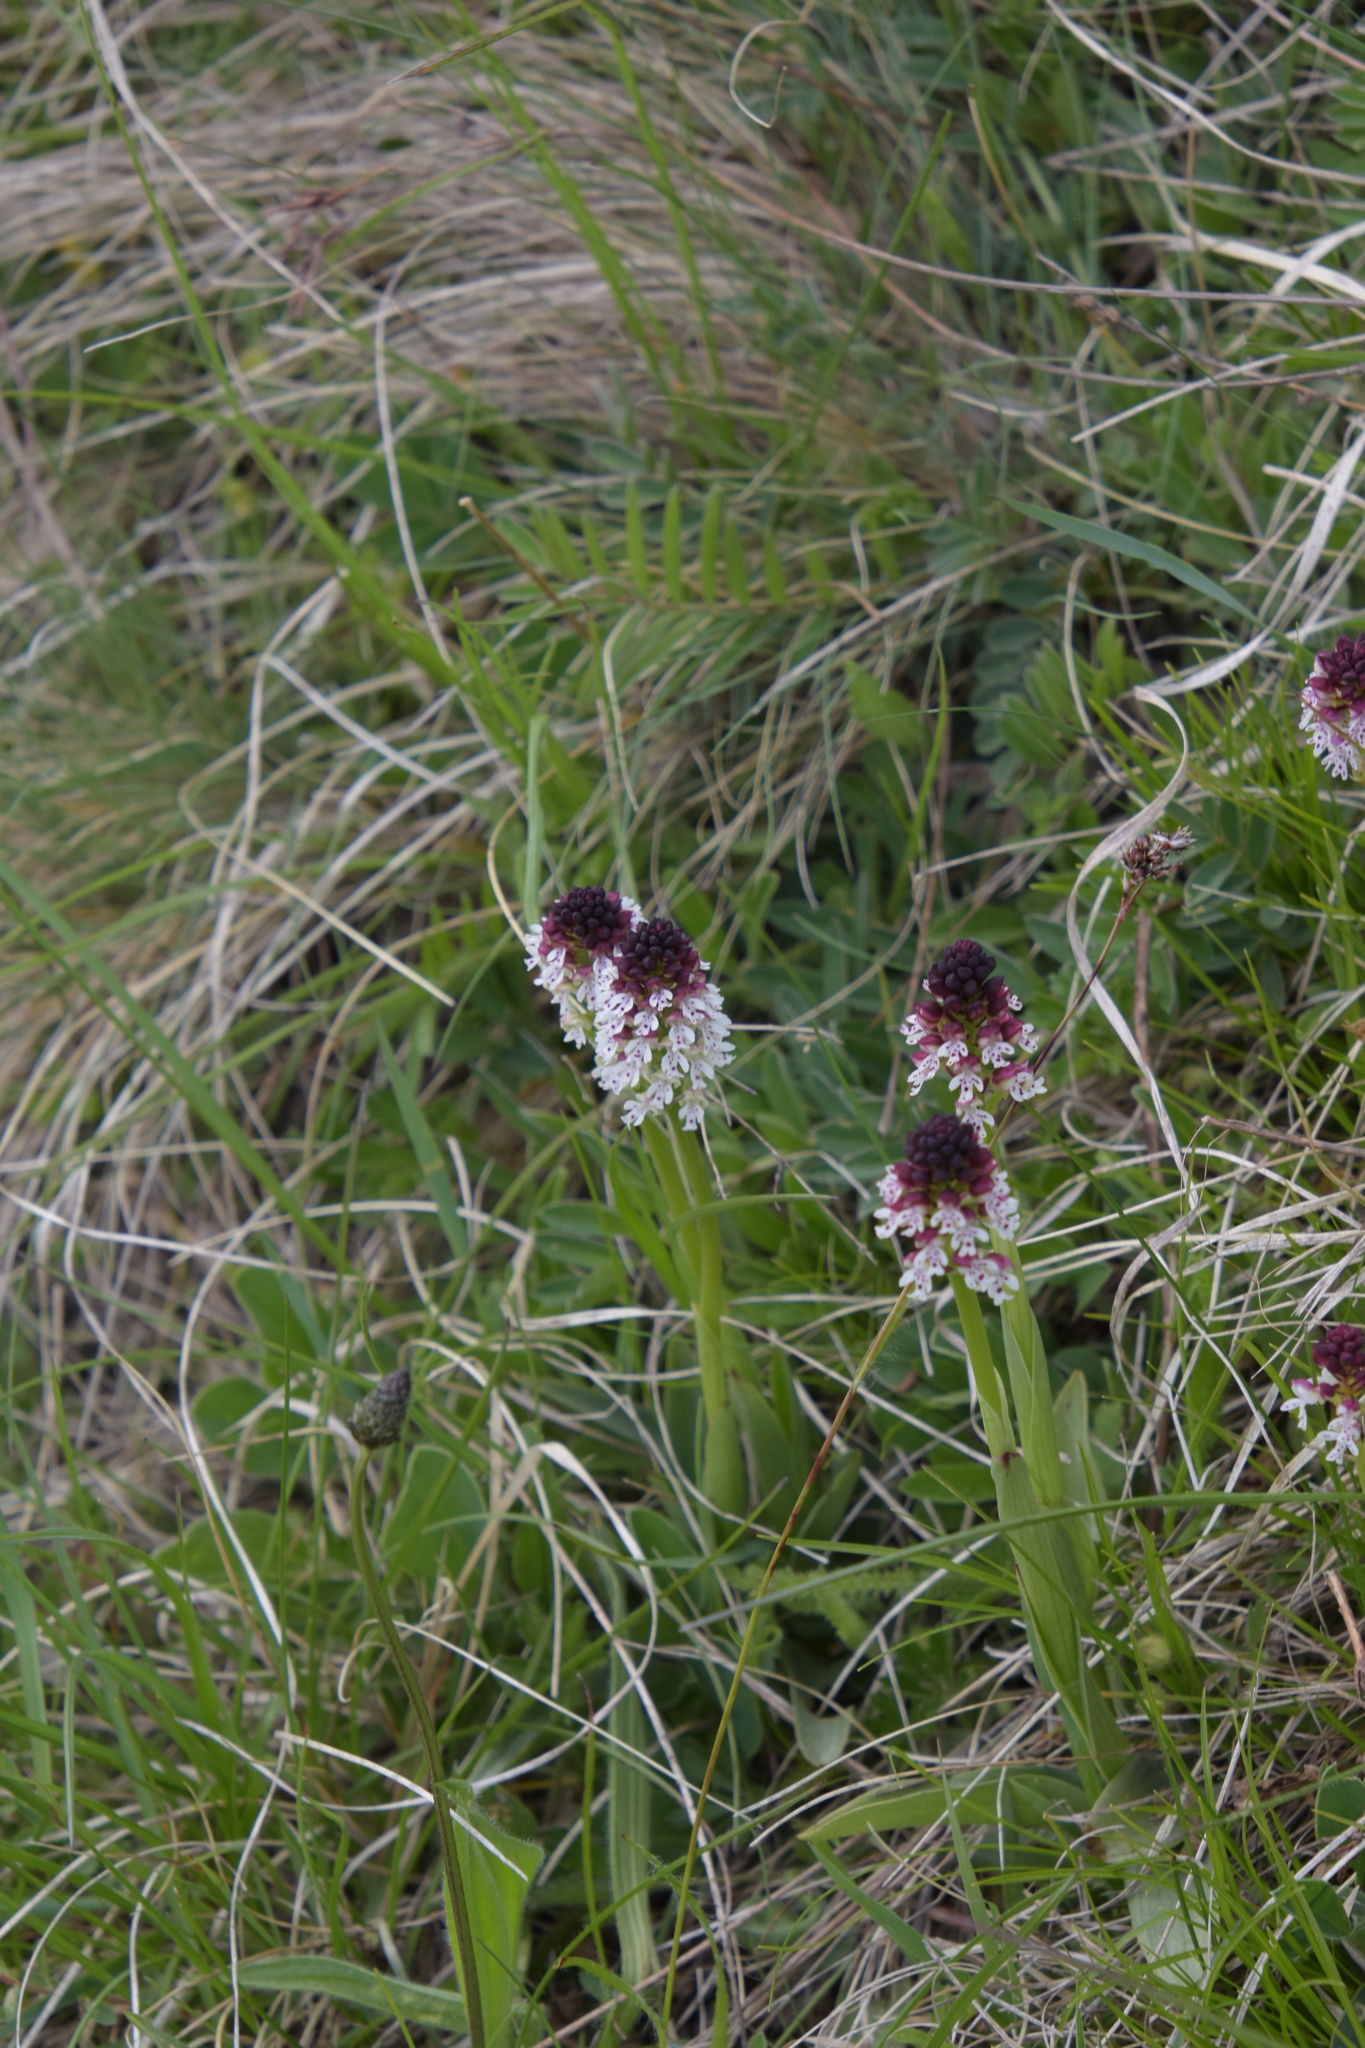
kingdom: Plantae
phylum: Tracheophyta
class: Liliopsida
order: Asparagales
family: Orchidaceae
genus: Neotinea
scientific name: Neotinea ustulata
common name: Burnt orchid
